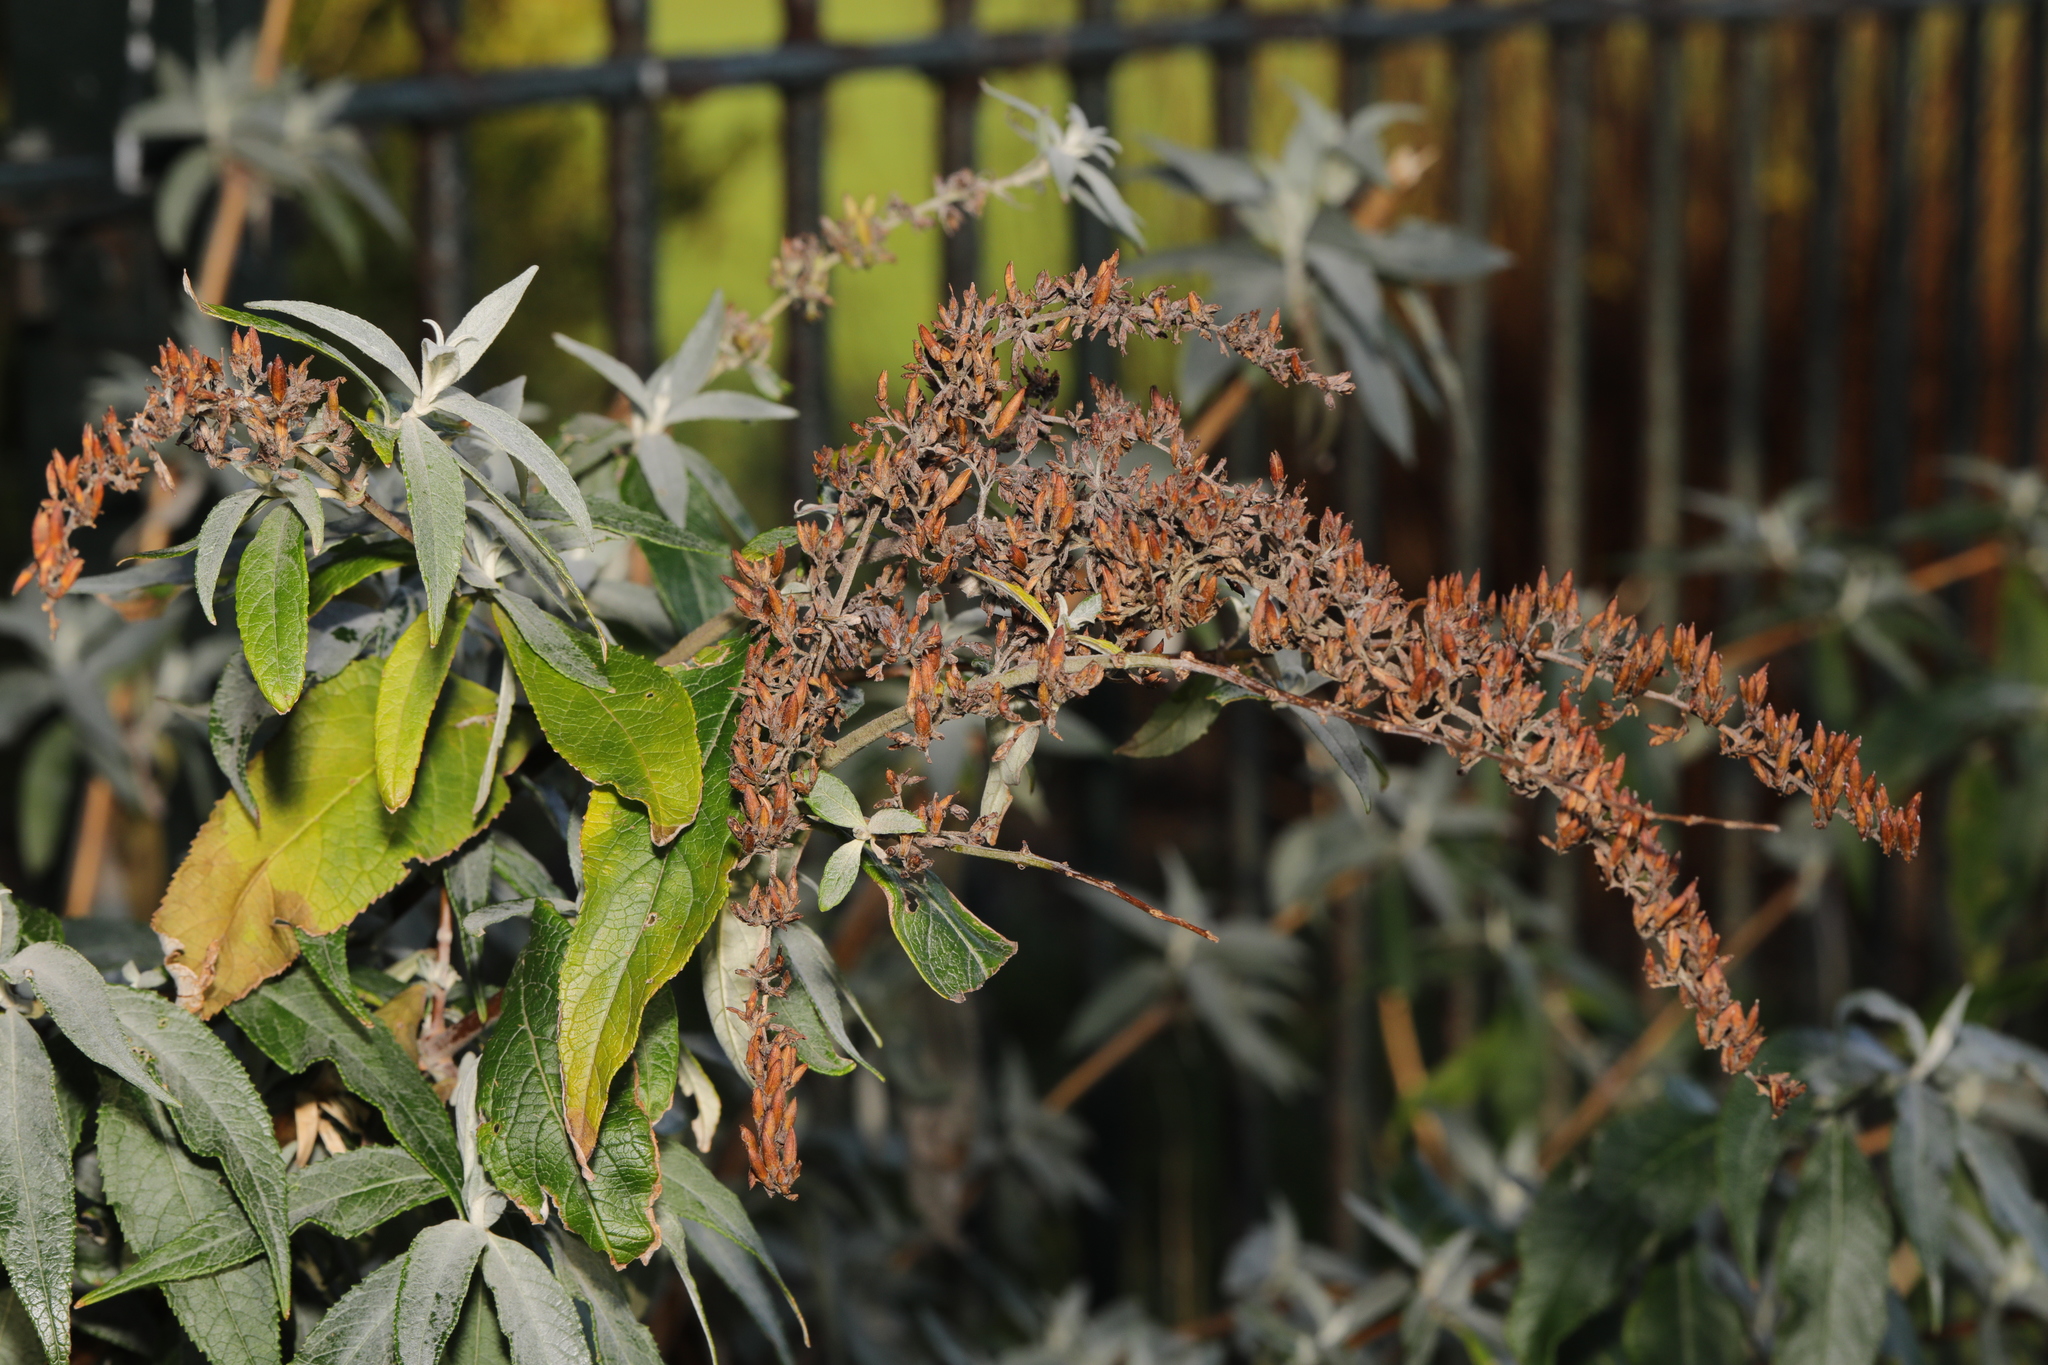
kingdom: Plantae
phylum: Tracheophyta
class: Magnoliopsida
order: Lamiales
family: Scrophulariaceae
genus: Buddleja
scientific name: Buddleja davidii
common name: Butterfly-bush
